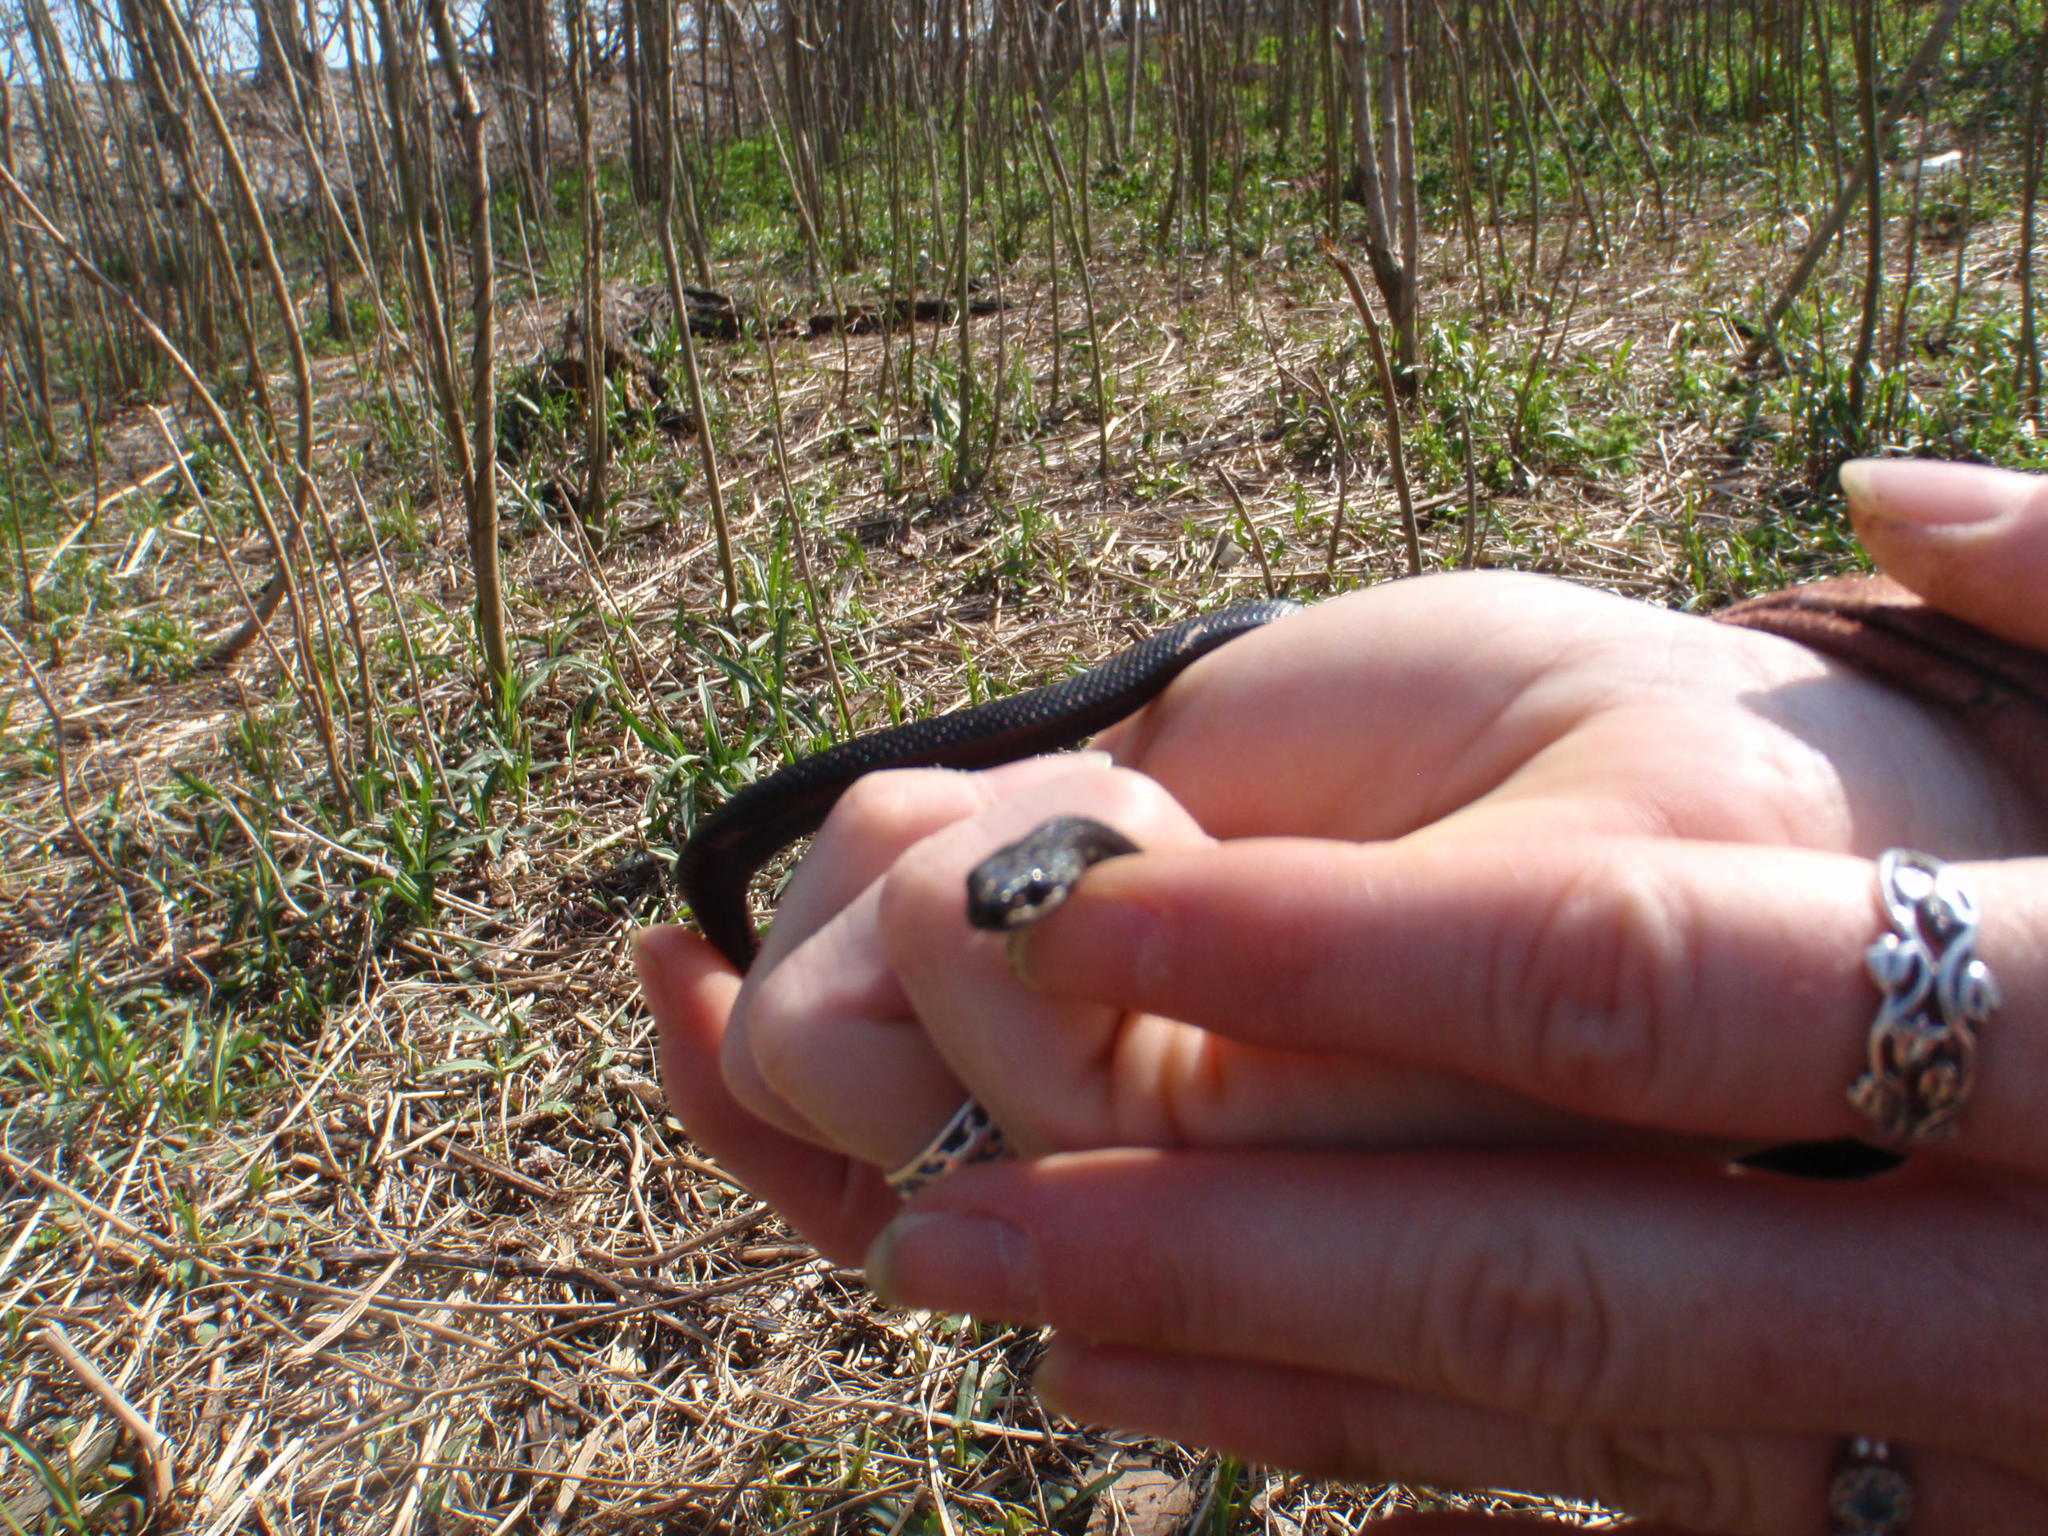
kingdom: Animalia
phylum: Chordata
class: Squamata
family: Colubridae
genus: Thamnophis
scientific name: Thamnophis sirtalis
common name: Common garter snake
